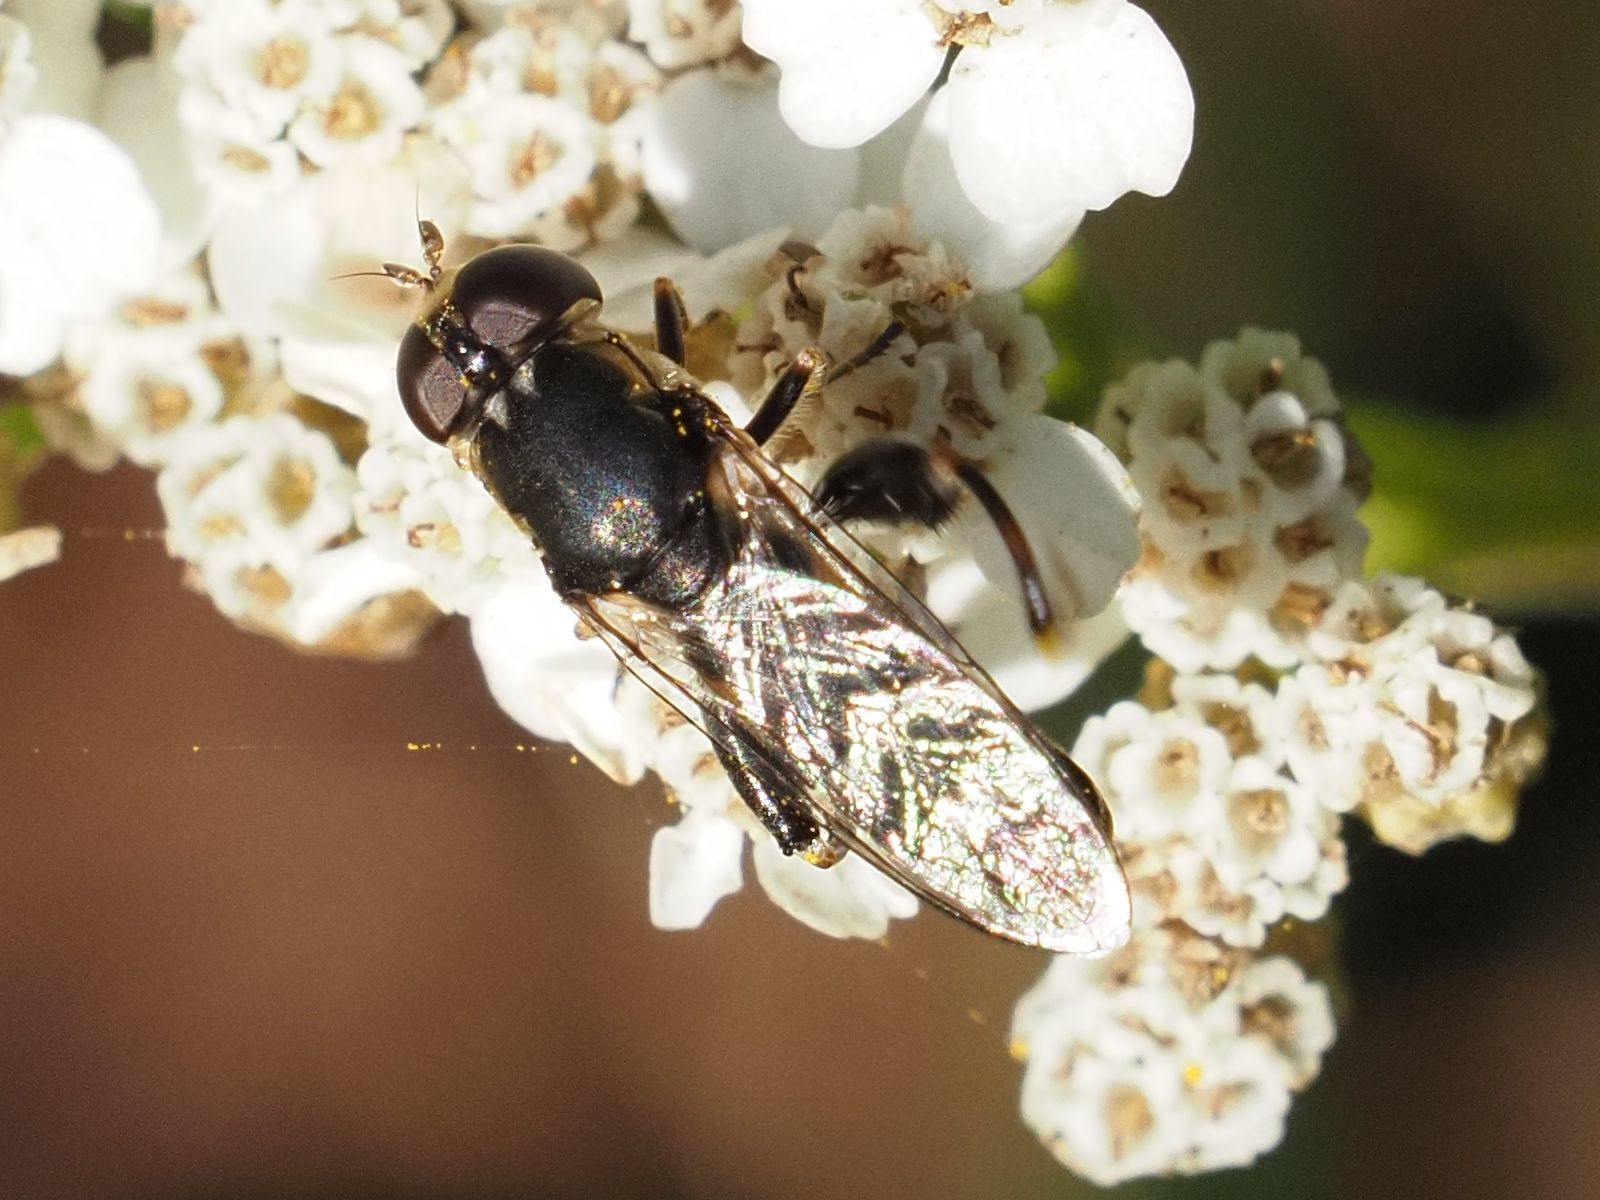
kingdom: Animalia
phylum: Arthropoda
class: Insecta
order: Diptera
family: Syrphidae
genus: Syritta
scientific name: Syritta pipiens
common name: Hover fly
